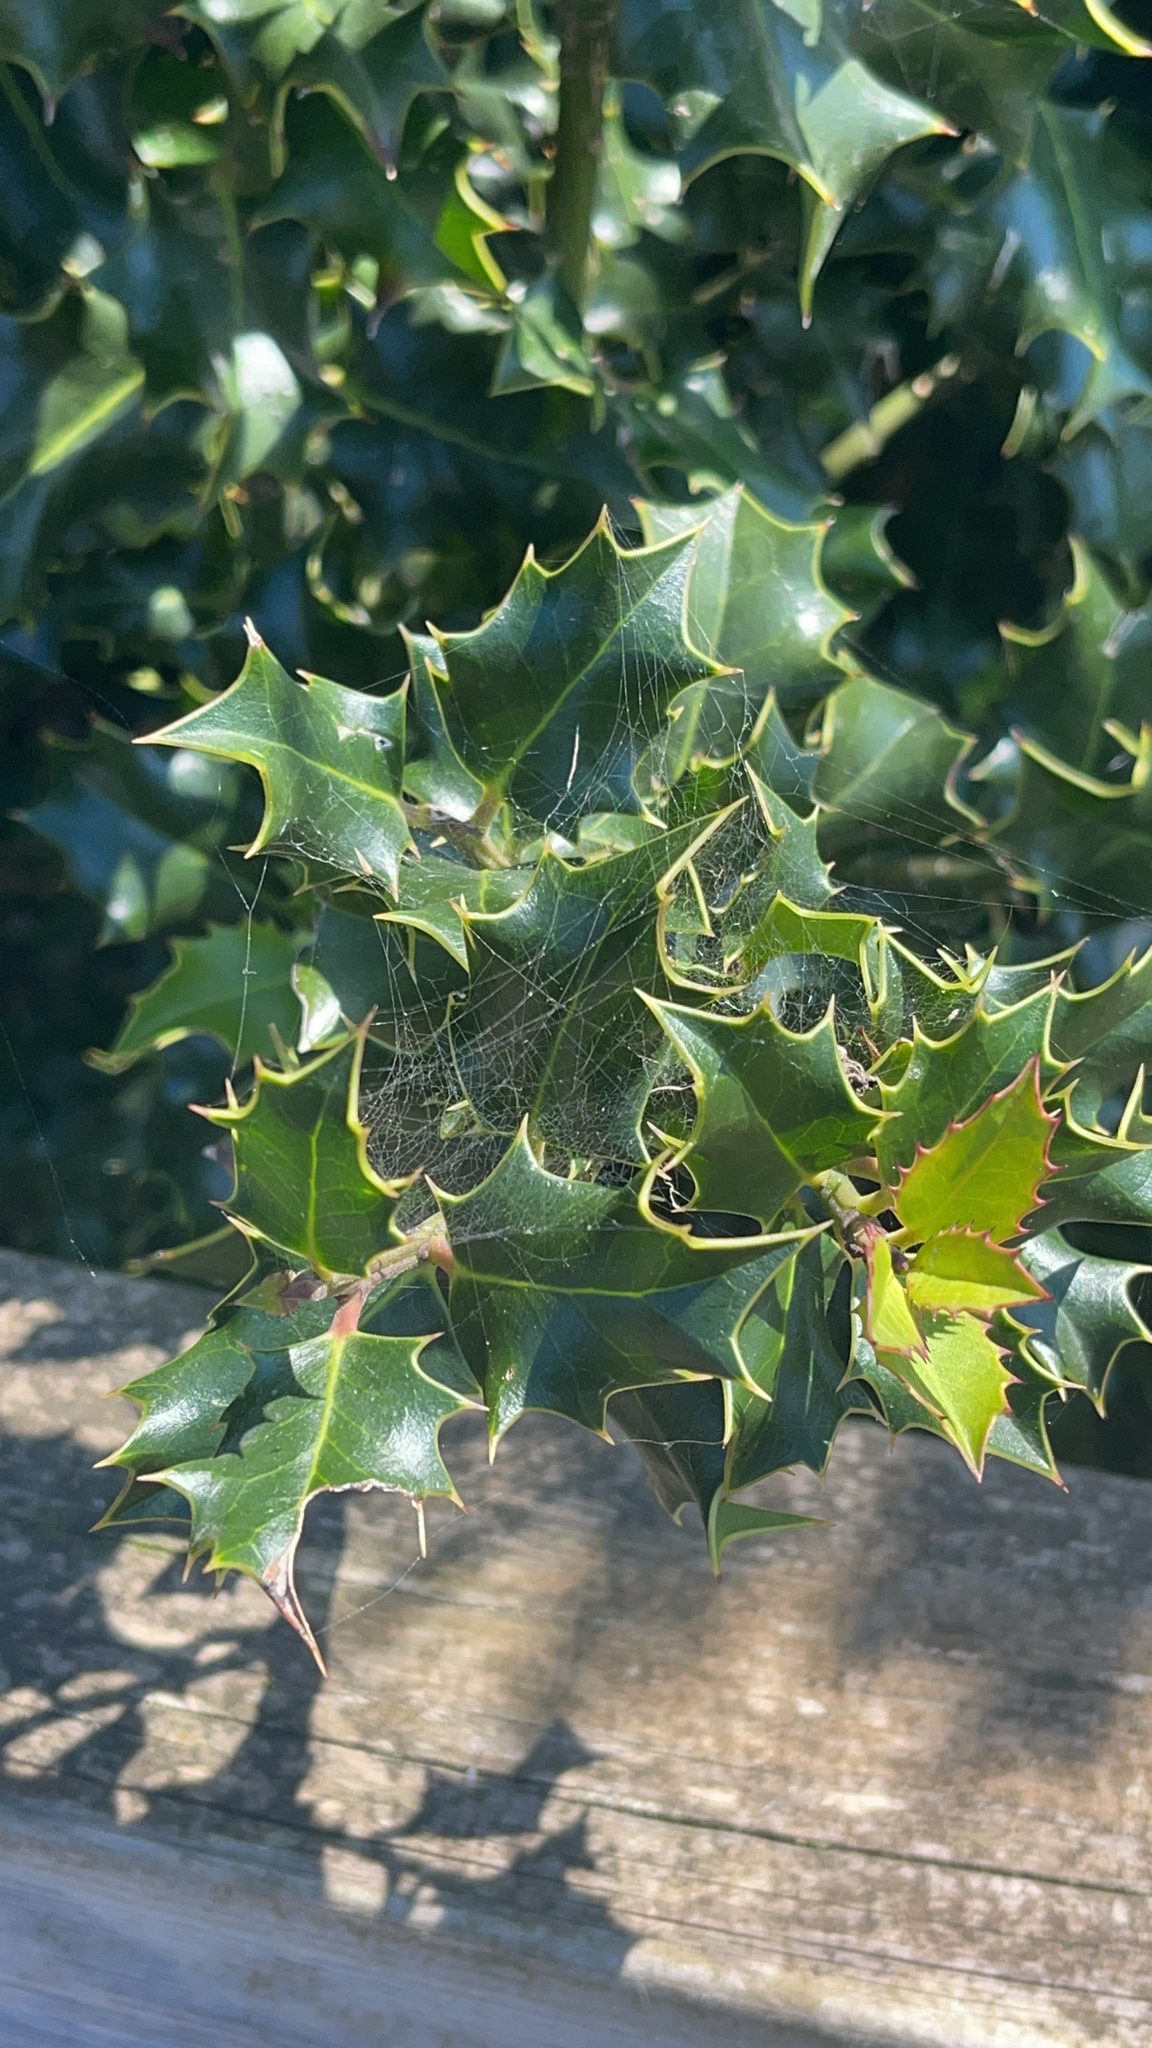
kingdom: Plantae
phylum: Tracheophyta
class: Magnoliopsida
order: Aquifoliales
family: Aquifoliaceae
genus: Ilex
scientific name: Ilex aquifolium
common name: English holly
